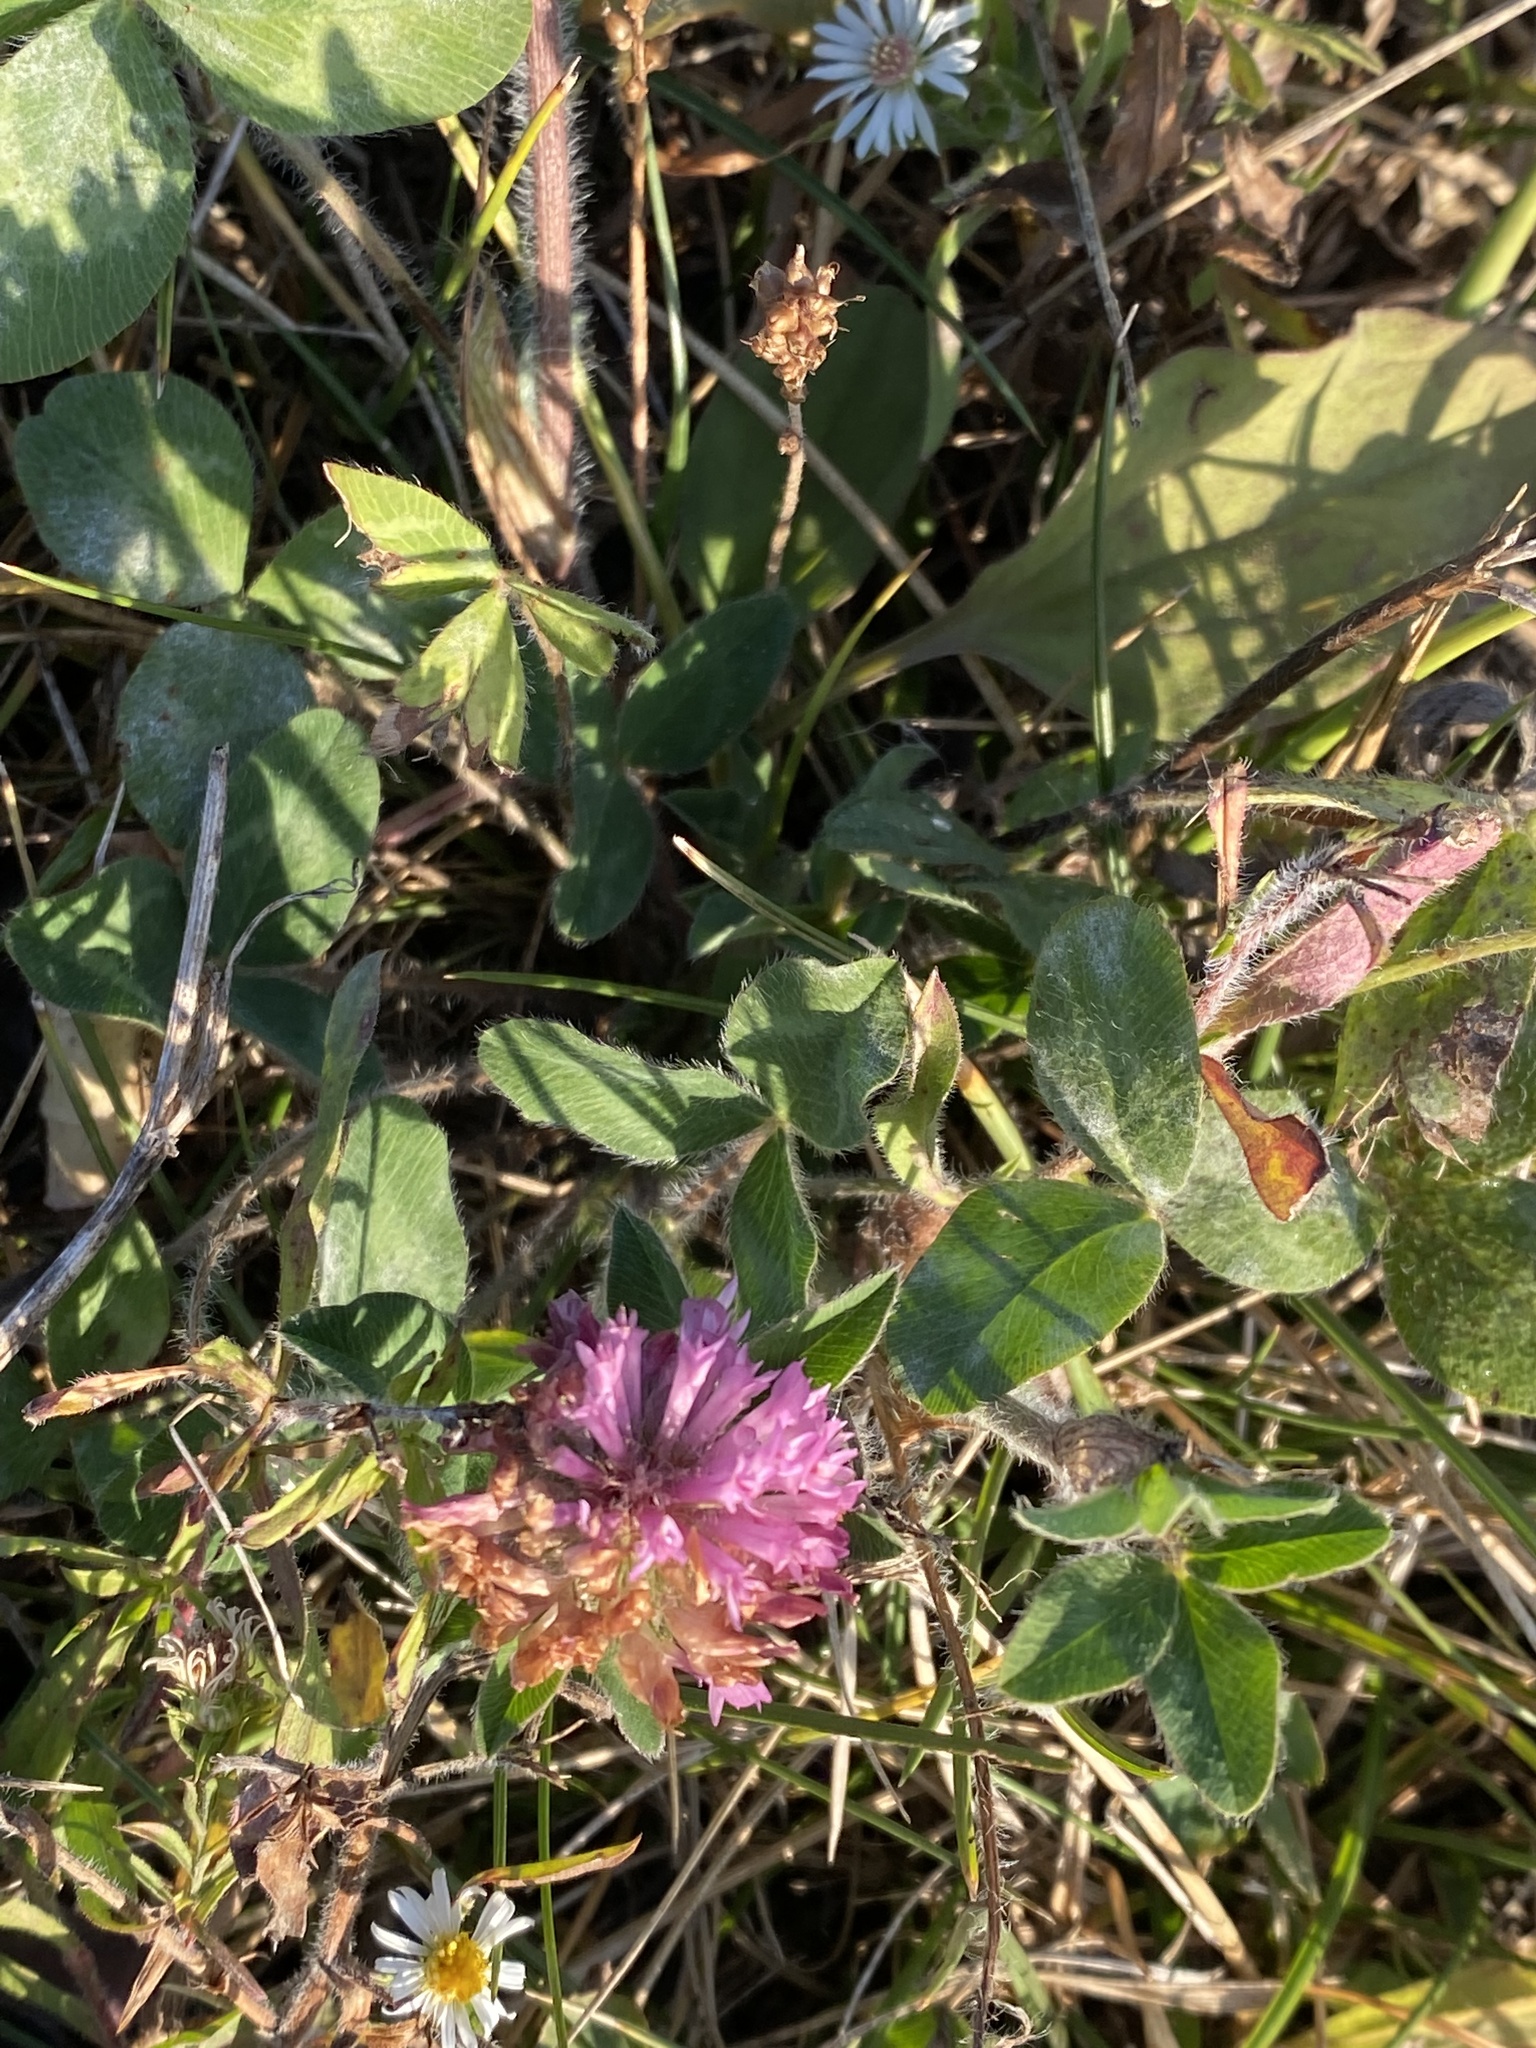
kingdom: Plantae
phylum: Tracheophyta
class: Magnoliopsida
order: Fabales
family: Fabaceae
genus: Trifolium
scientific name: Trifolium pratense
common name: Red clover
